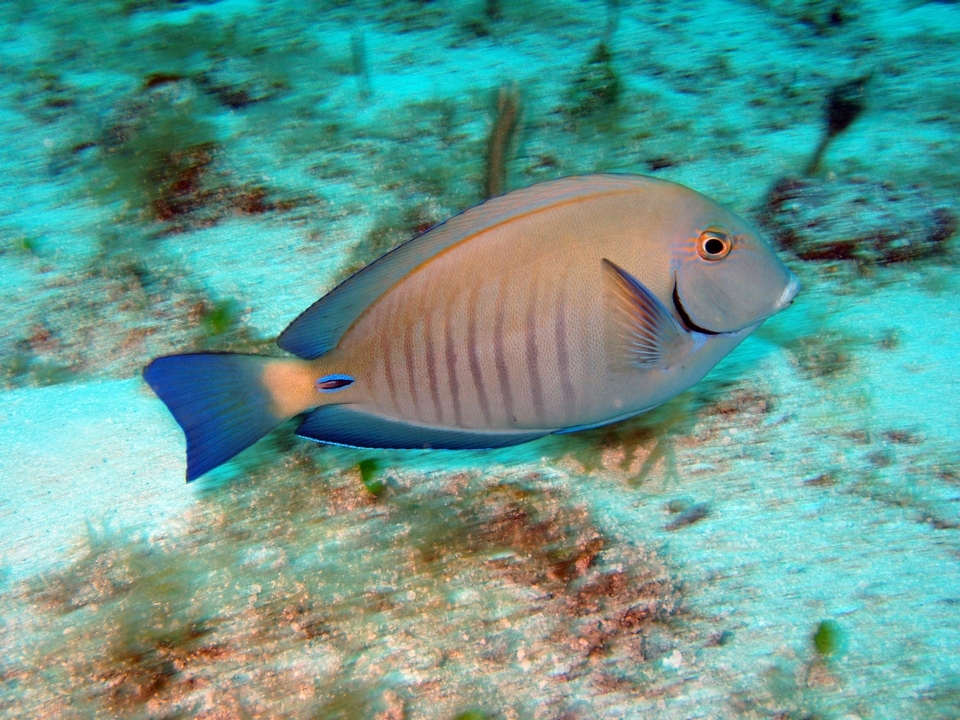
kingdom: Animalia
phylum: Chordata
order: Perciformes
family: Acanthuridae
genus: Acanthurus
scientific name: Acanthurus chirurgus
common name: Doctorfish
